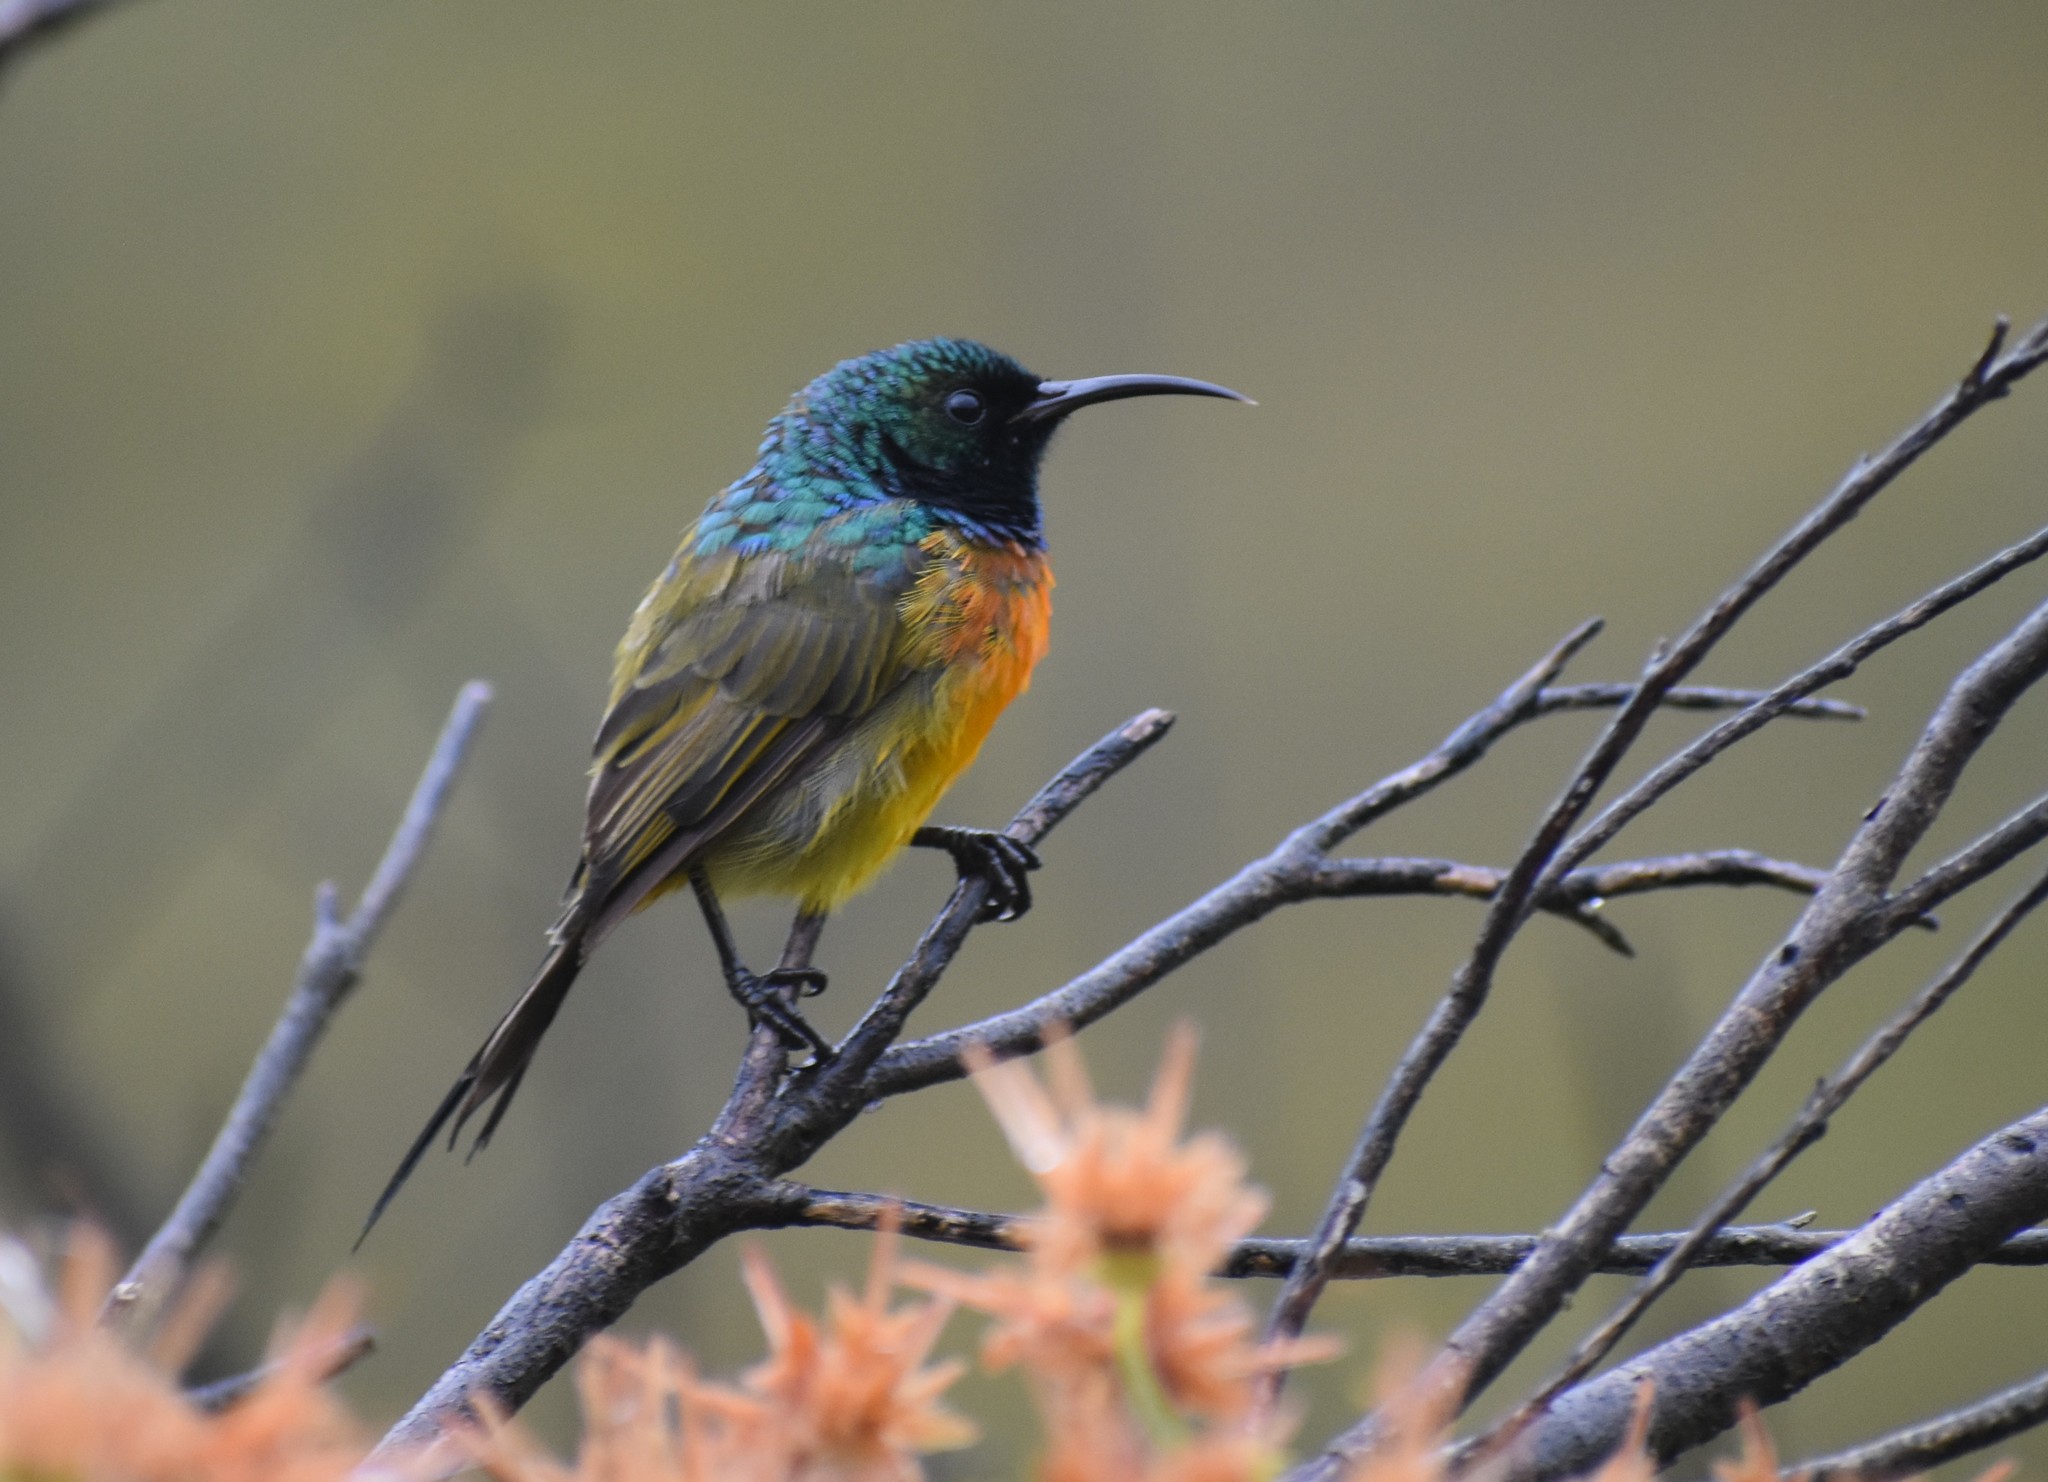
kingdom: Animalia
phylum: Chordata
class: Aves
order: Passeriformes
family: Nectariniidae
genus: Anthobaphes
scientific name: Anthobaphes violacea
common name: Orange-breasted sunbird
